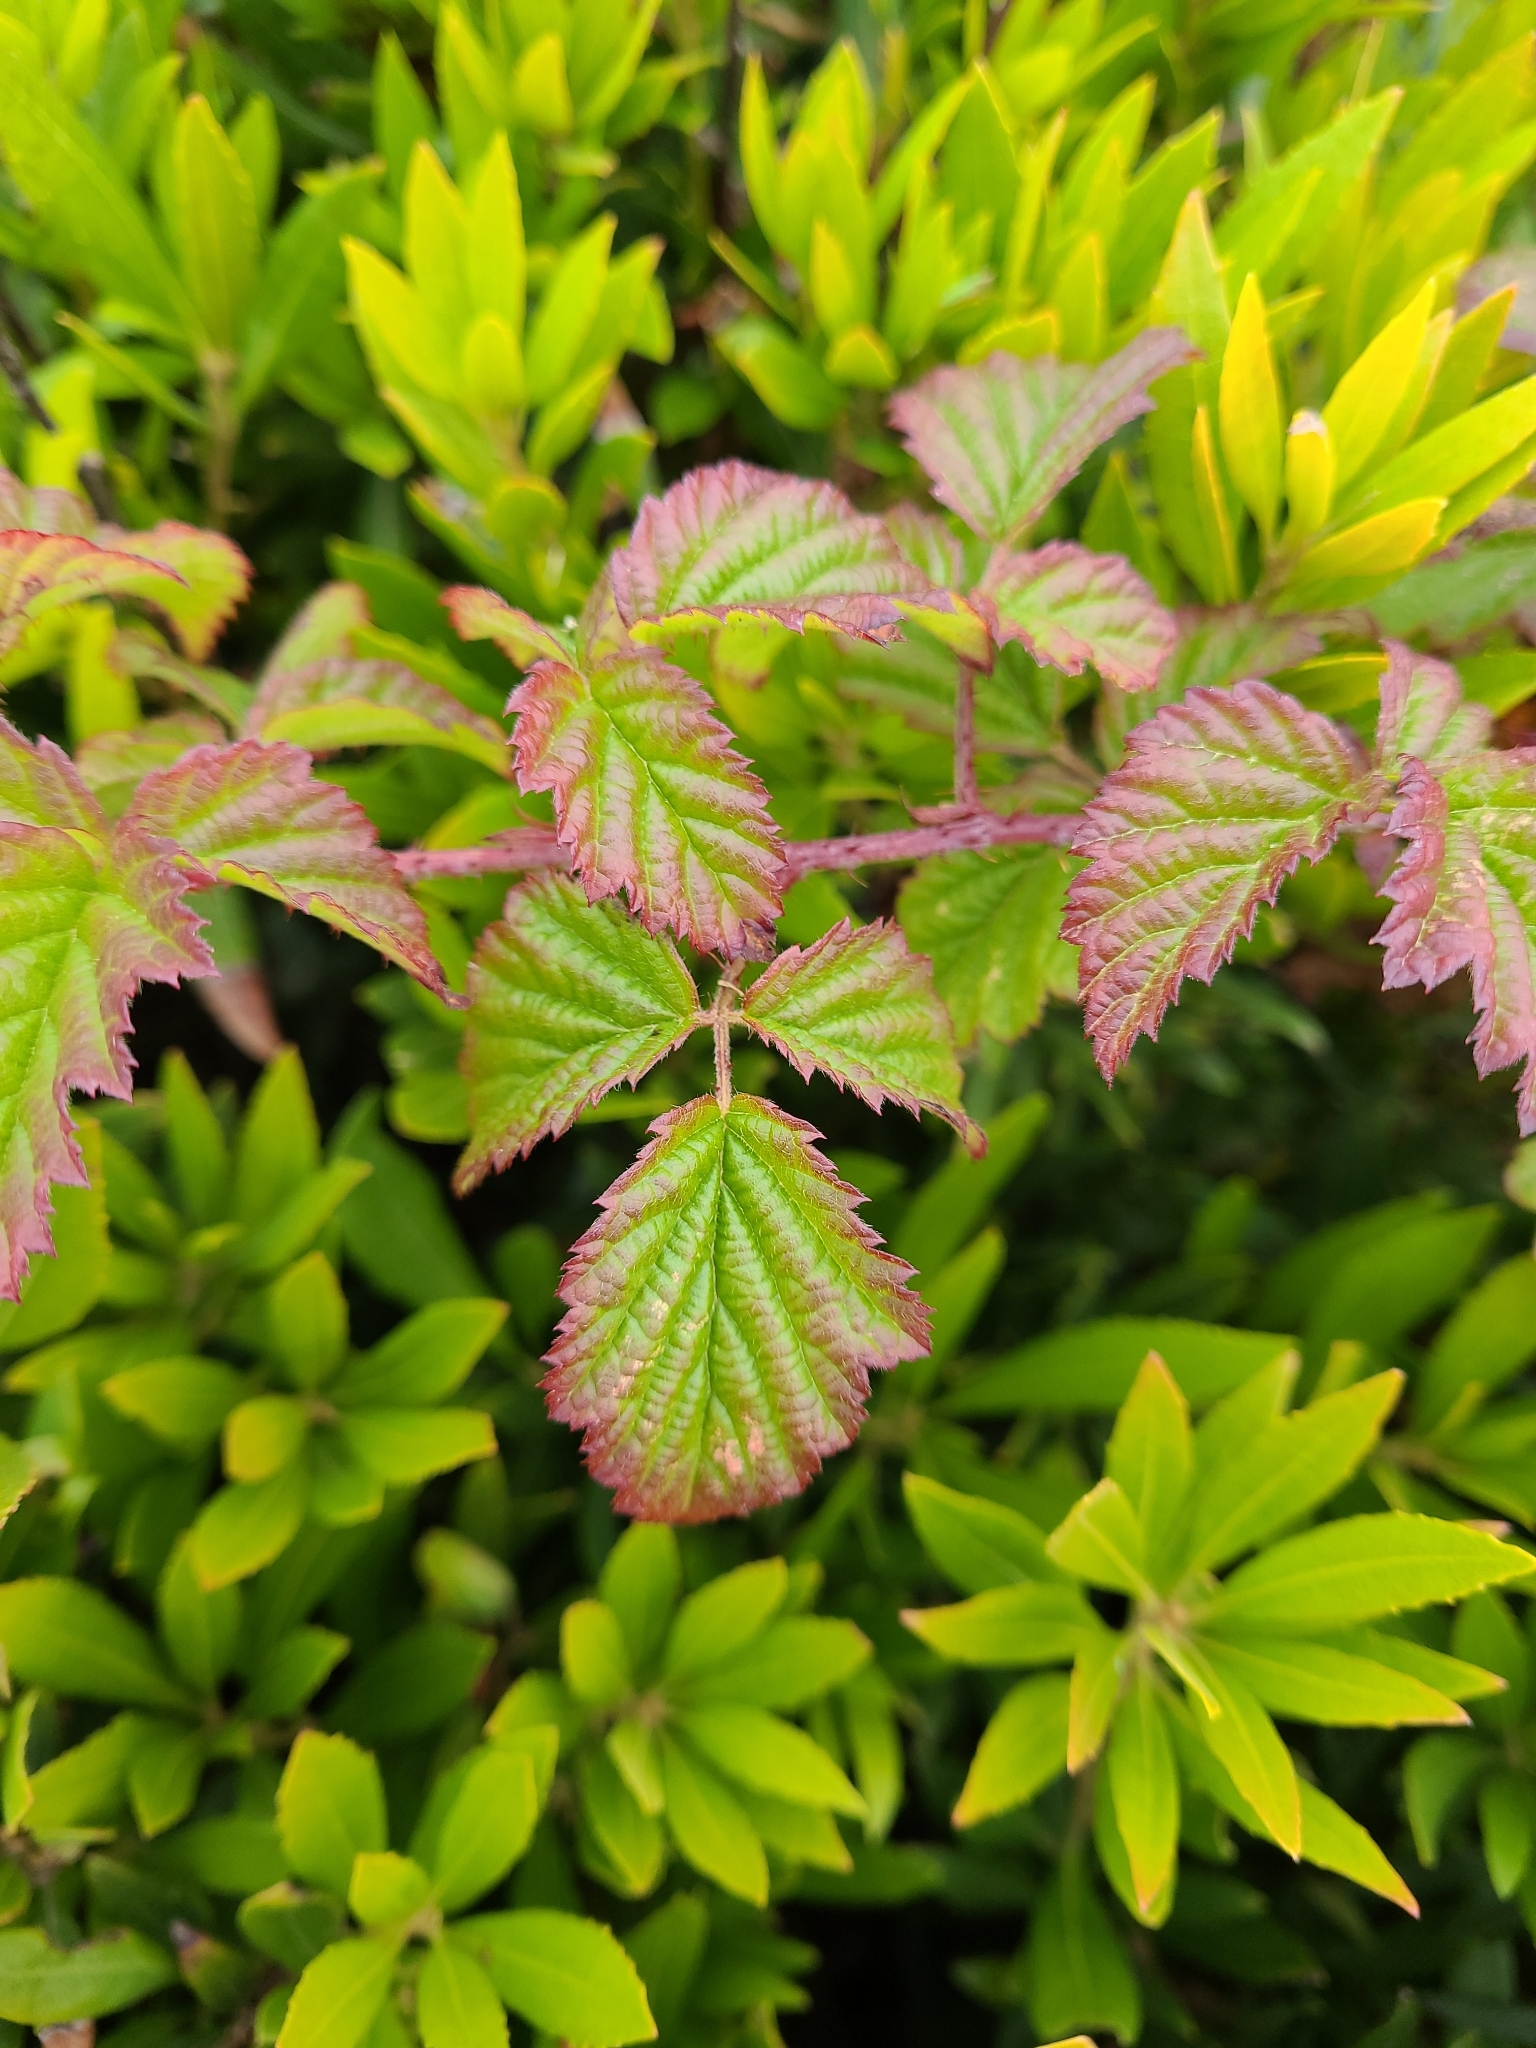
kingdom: Plantae
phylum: Tracheophyta
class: Magnoliopsida
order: Rosales
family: Rosaceae
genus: Rubus
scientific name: Rubus ursinus
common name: Pacific blackberry
